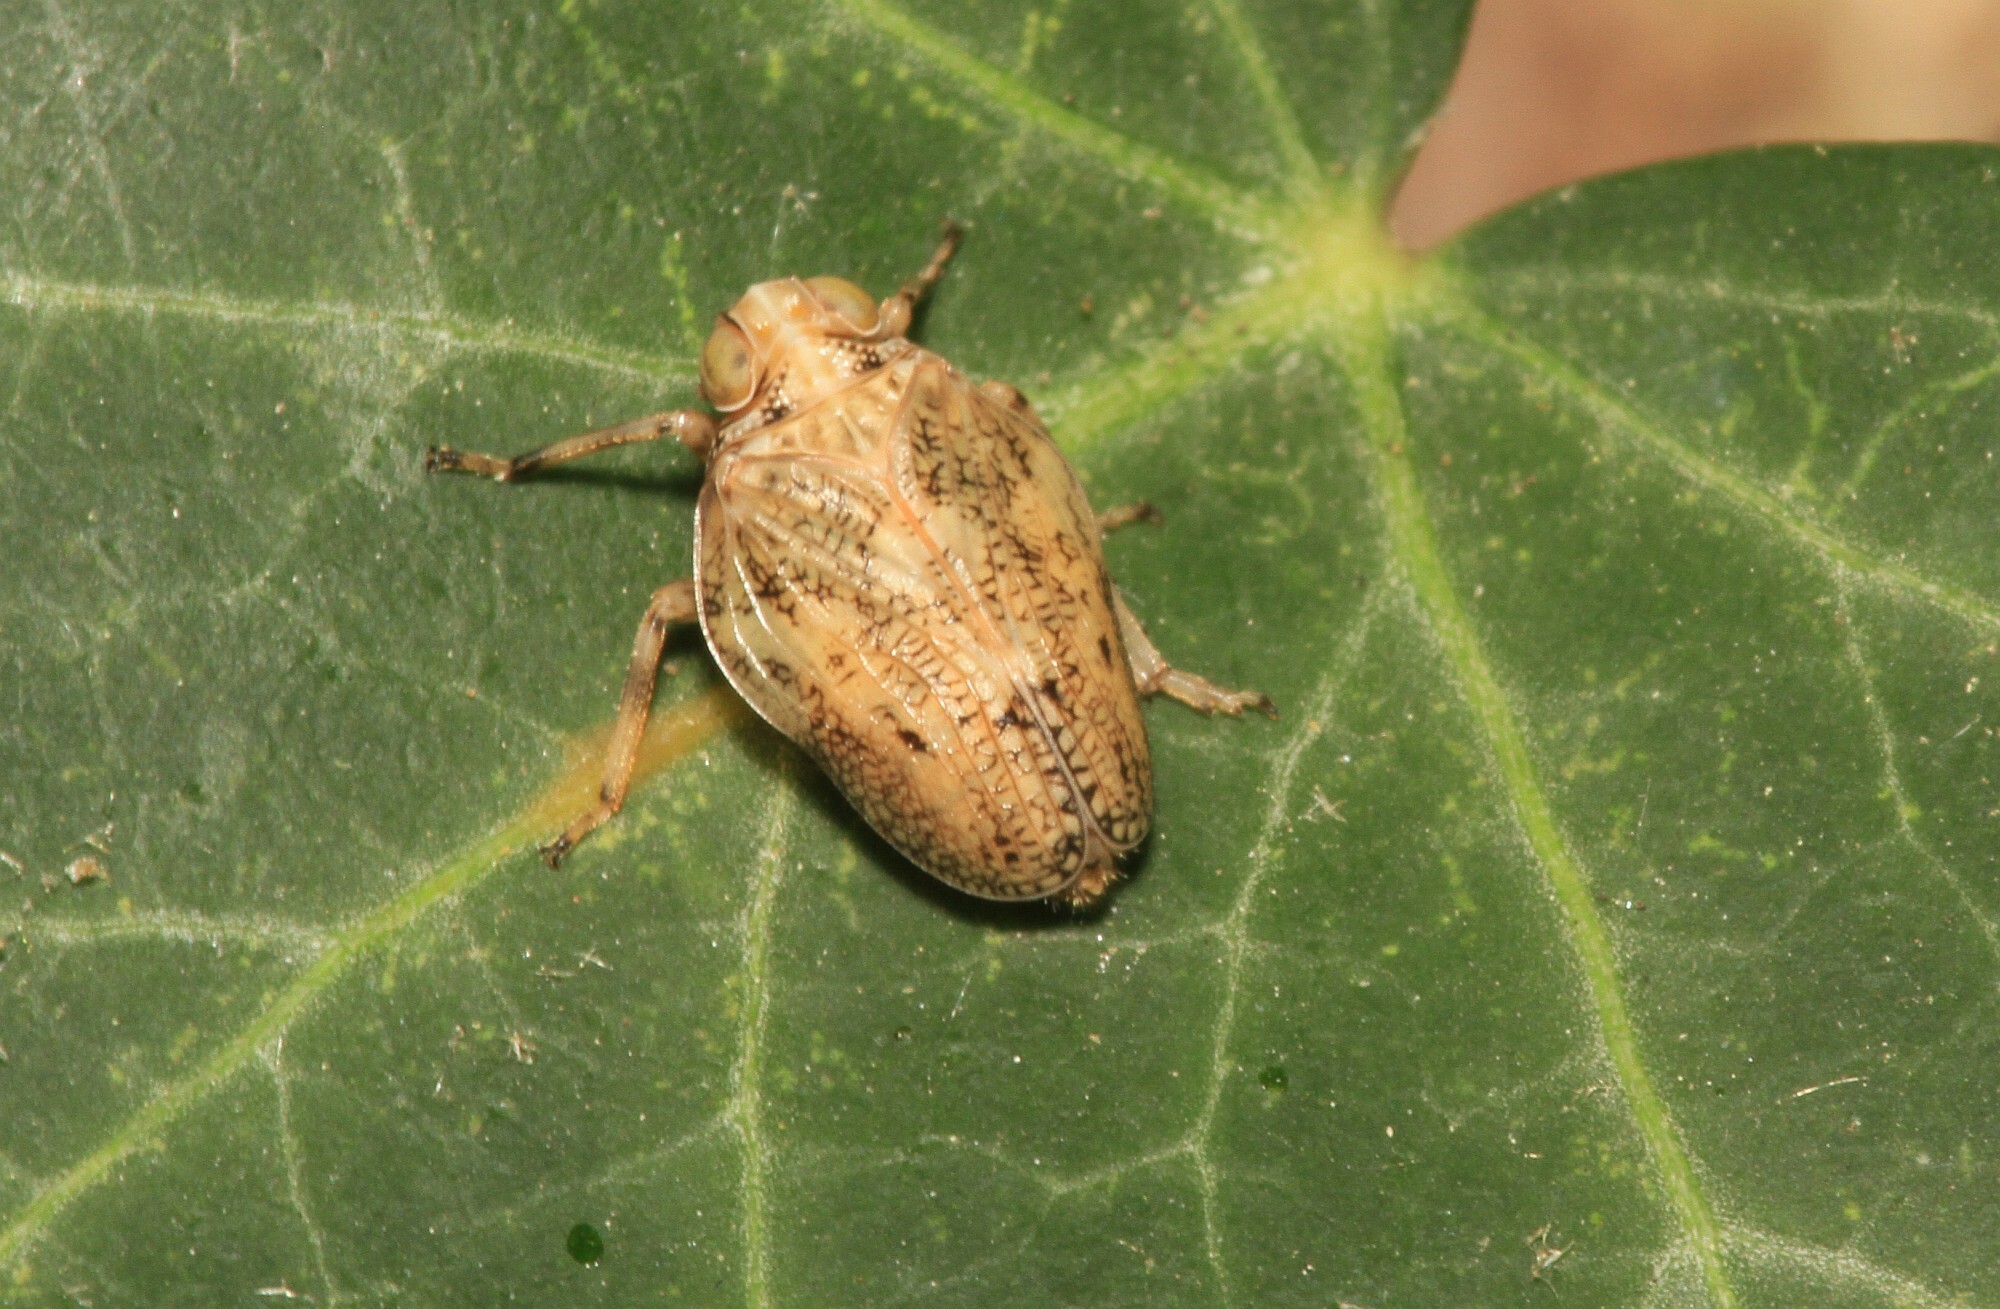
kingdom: Animalia
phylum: Arthropoda
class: Insecta
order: Hemiptera
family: Issidae
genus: Issus
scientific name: Issus coleoptratus
